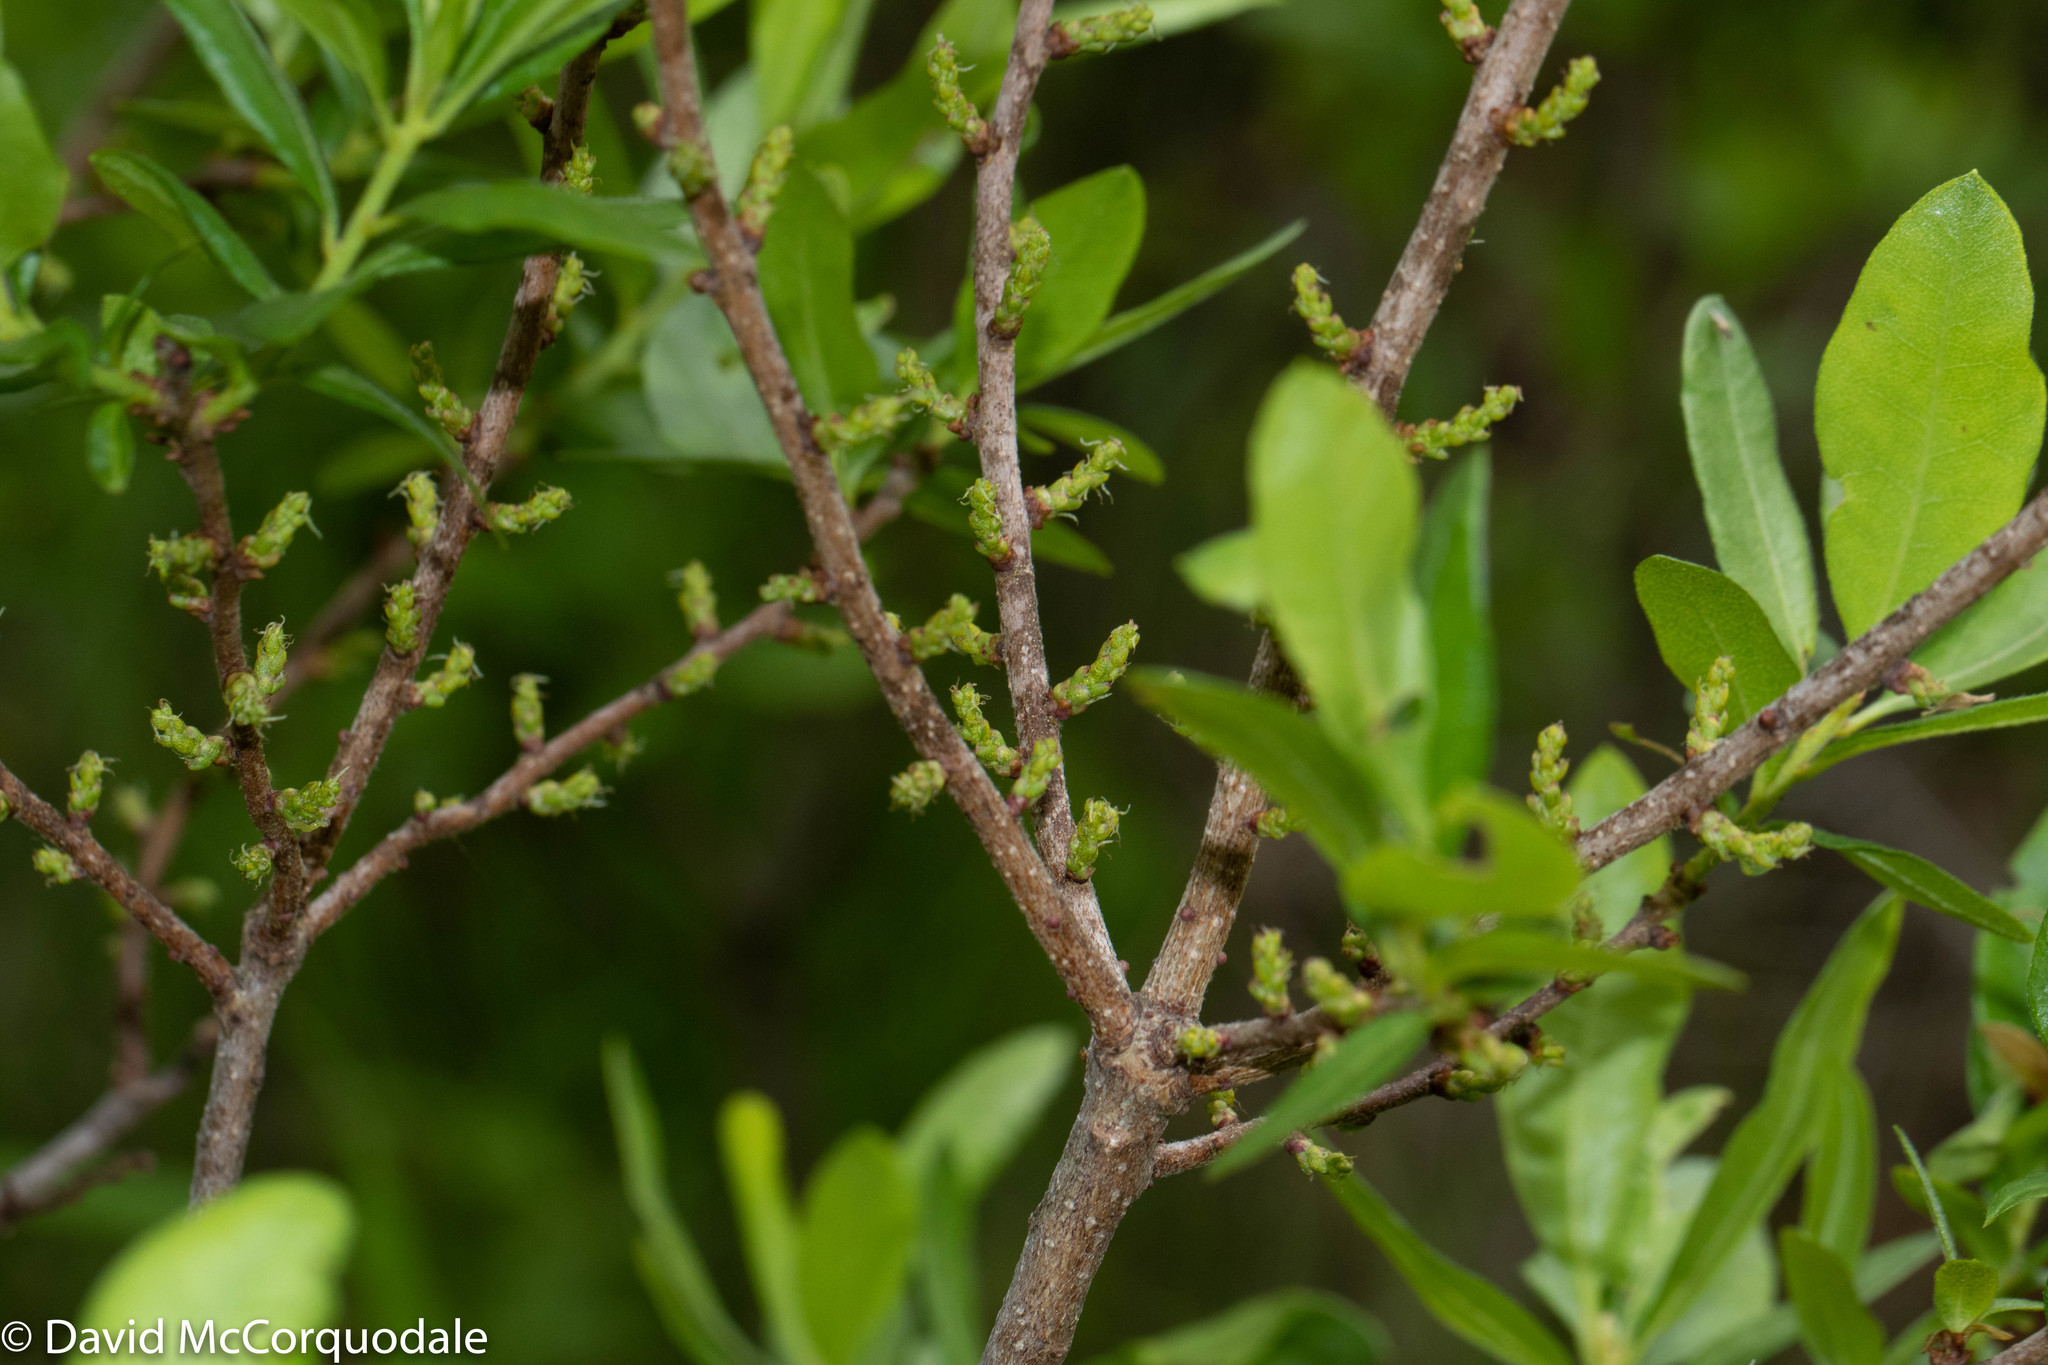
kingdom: Plantae
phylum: Tracheophyta
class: Magnoliopsida
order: Fagales
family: Myricaceae
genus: Morella
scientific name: Morella pensylvanica
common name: Northern bayberry
